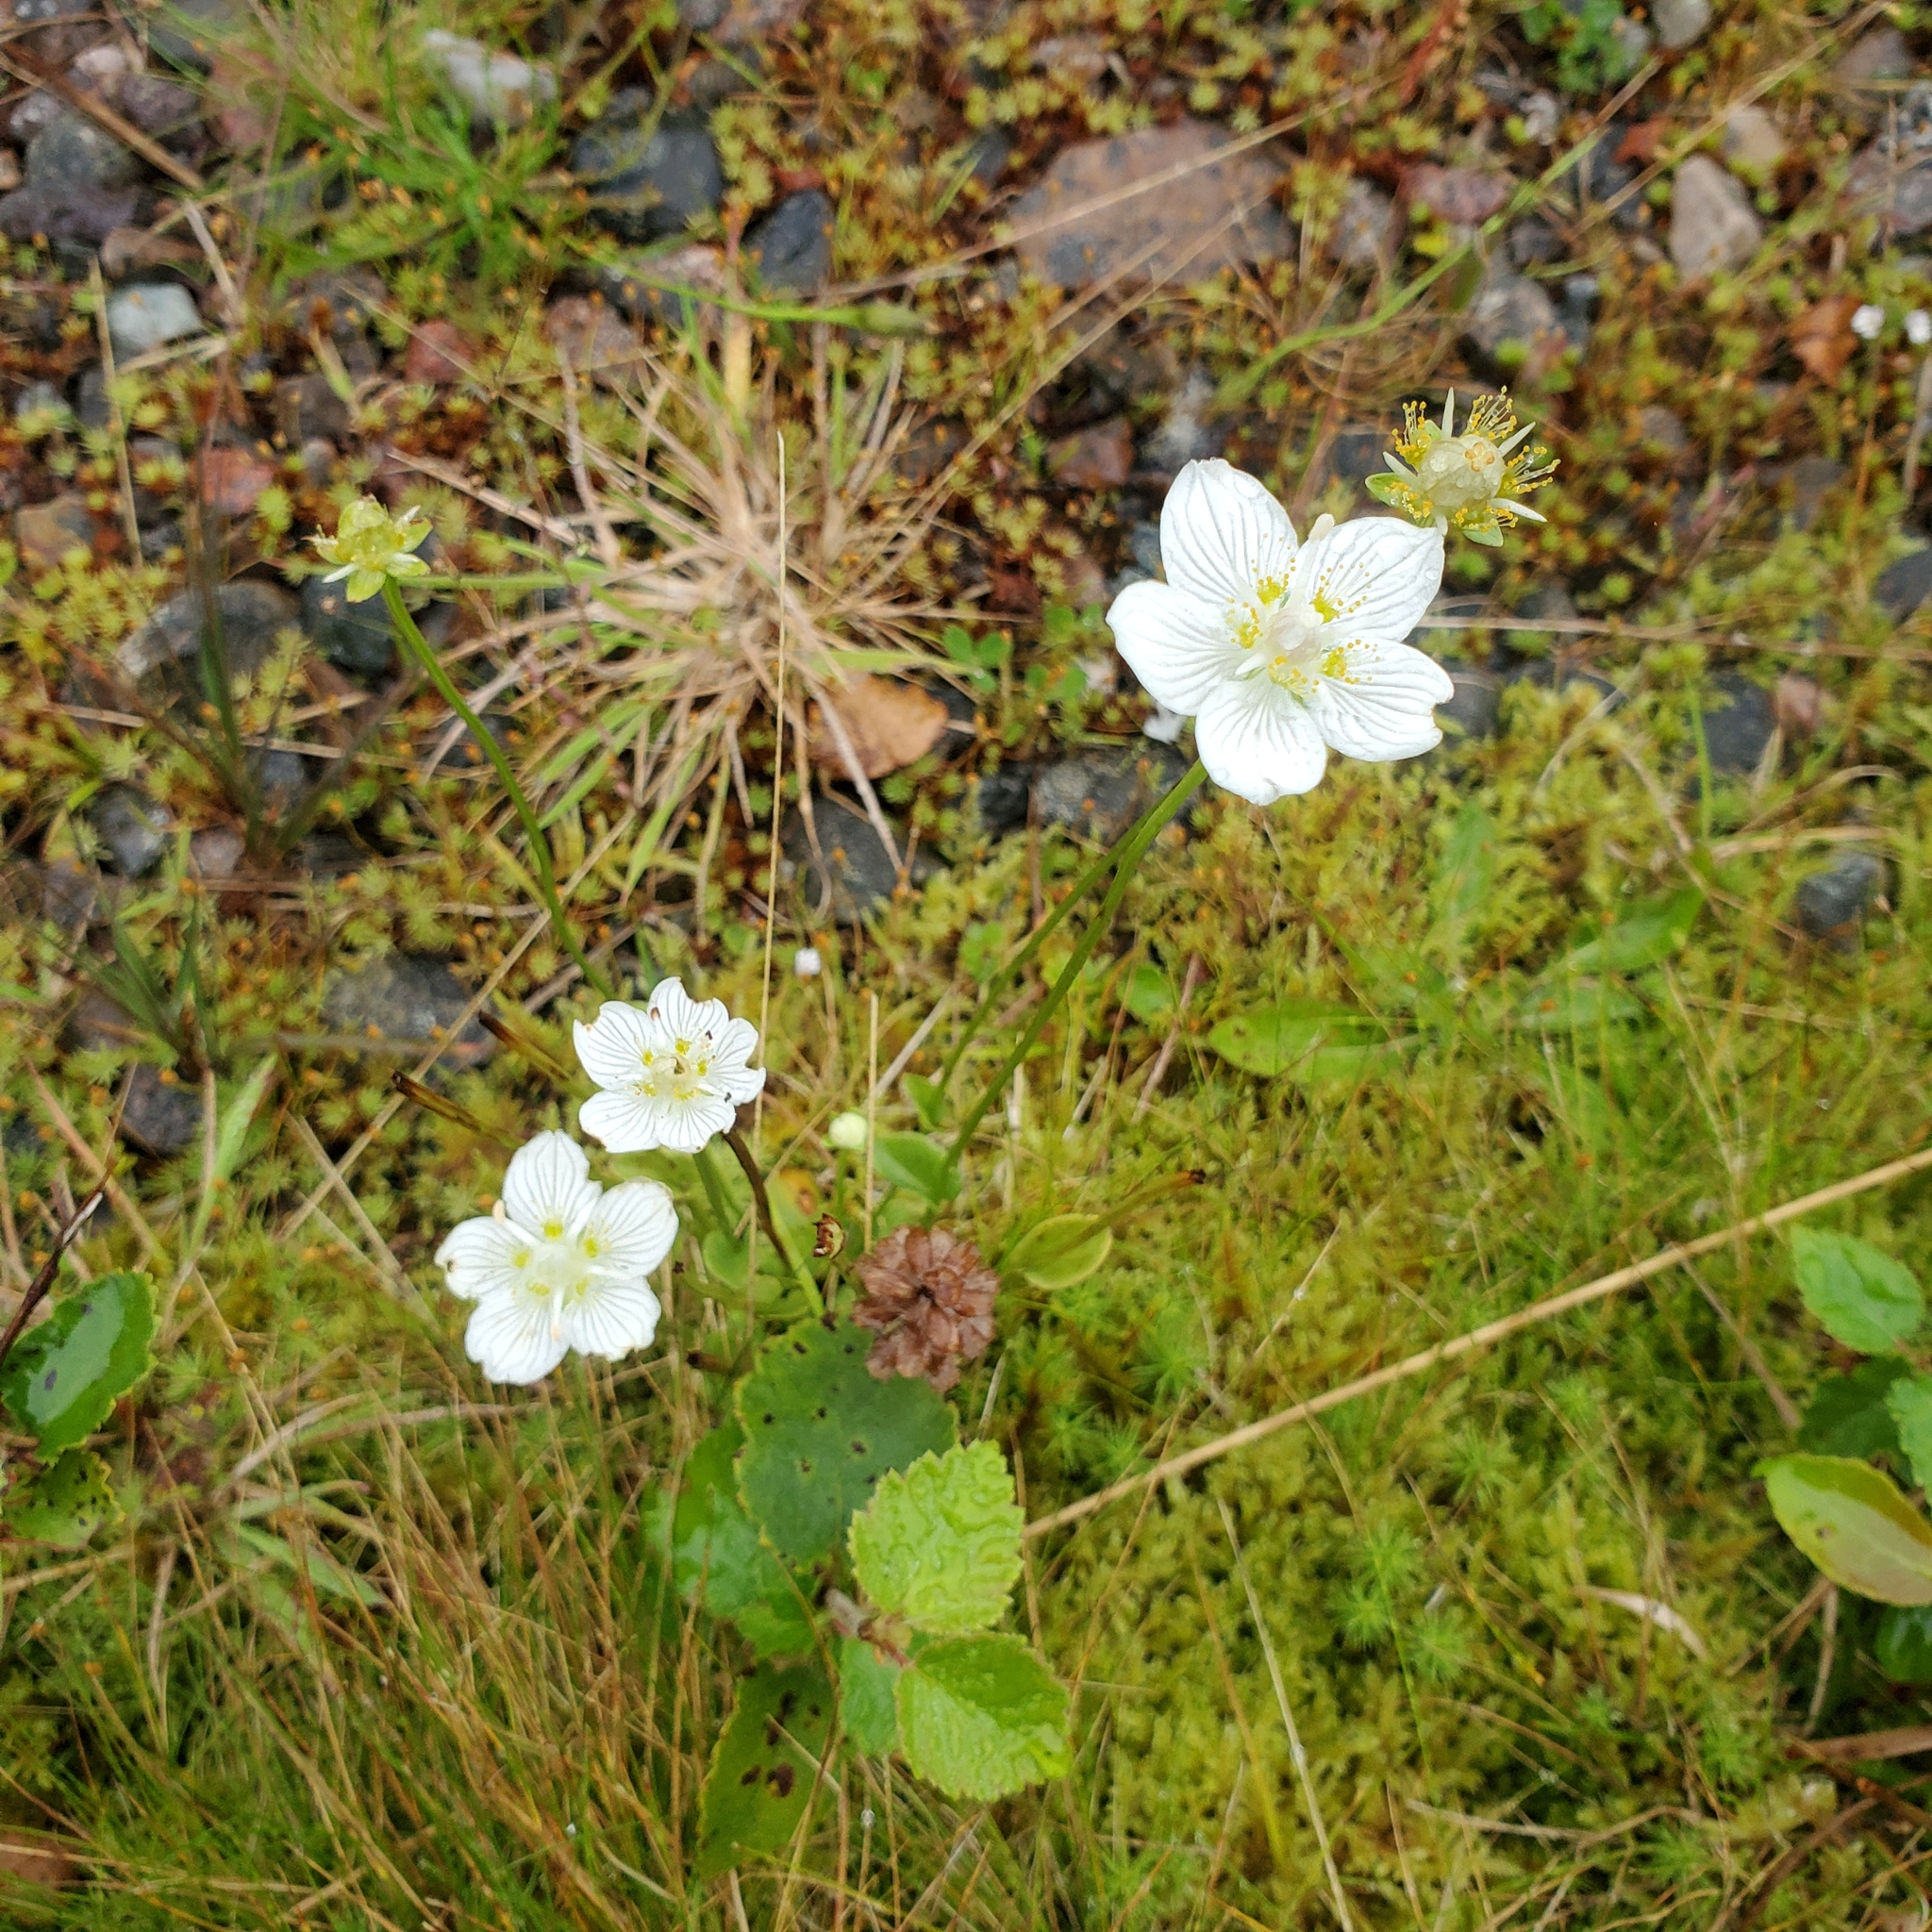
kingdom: Plantae
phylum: Tracheophyta
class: Magnoliopsida
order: Celastrales
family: Parnassiaceae
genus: Parnassia
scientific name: Parnassia palustris
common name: Grass-of-parnassus
